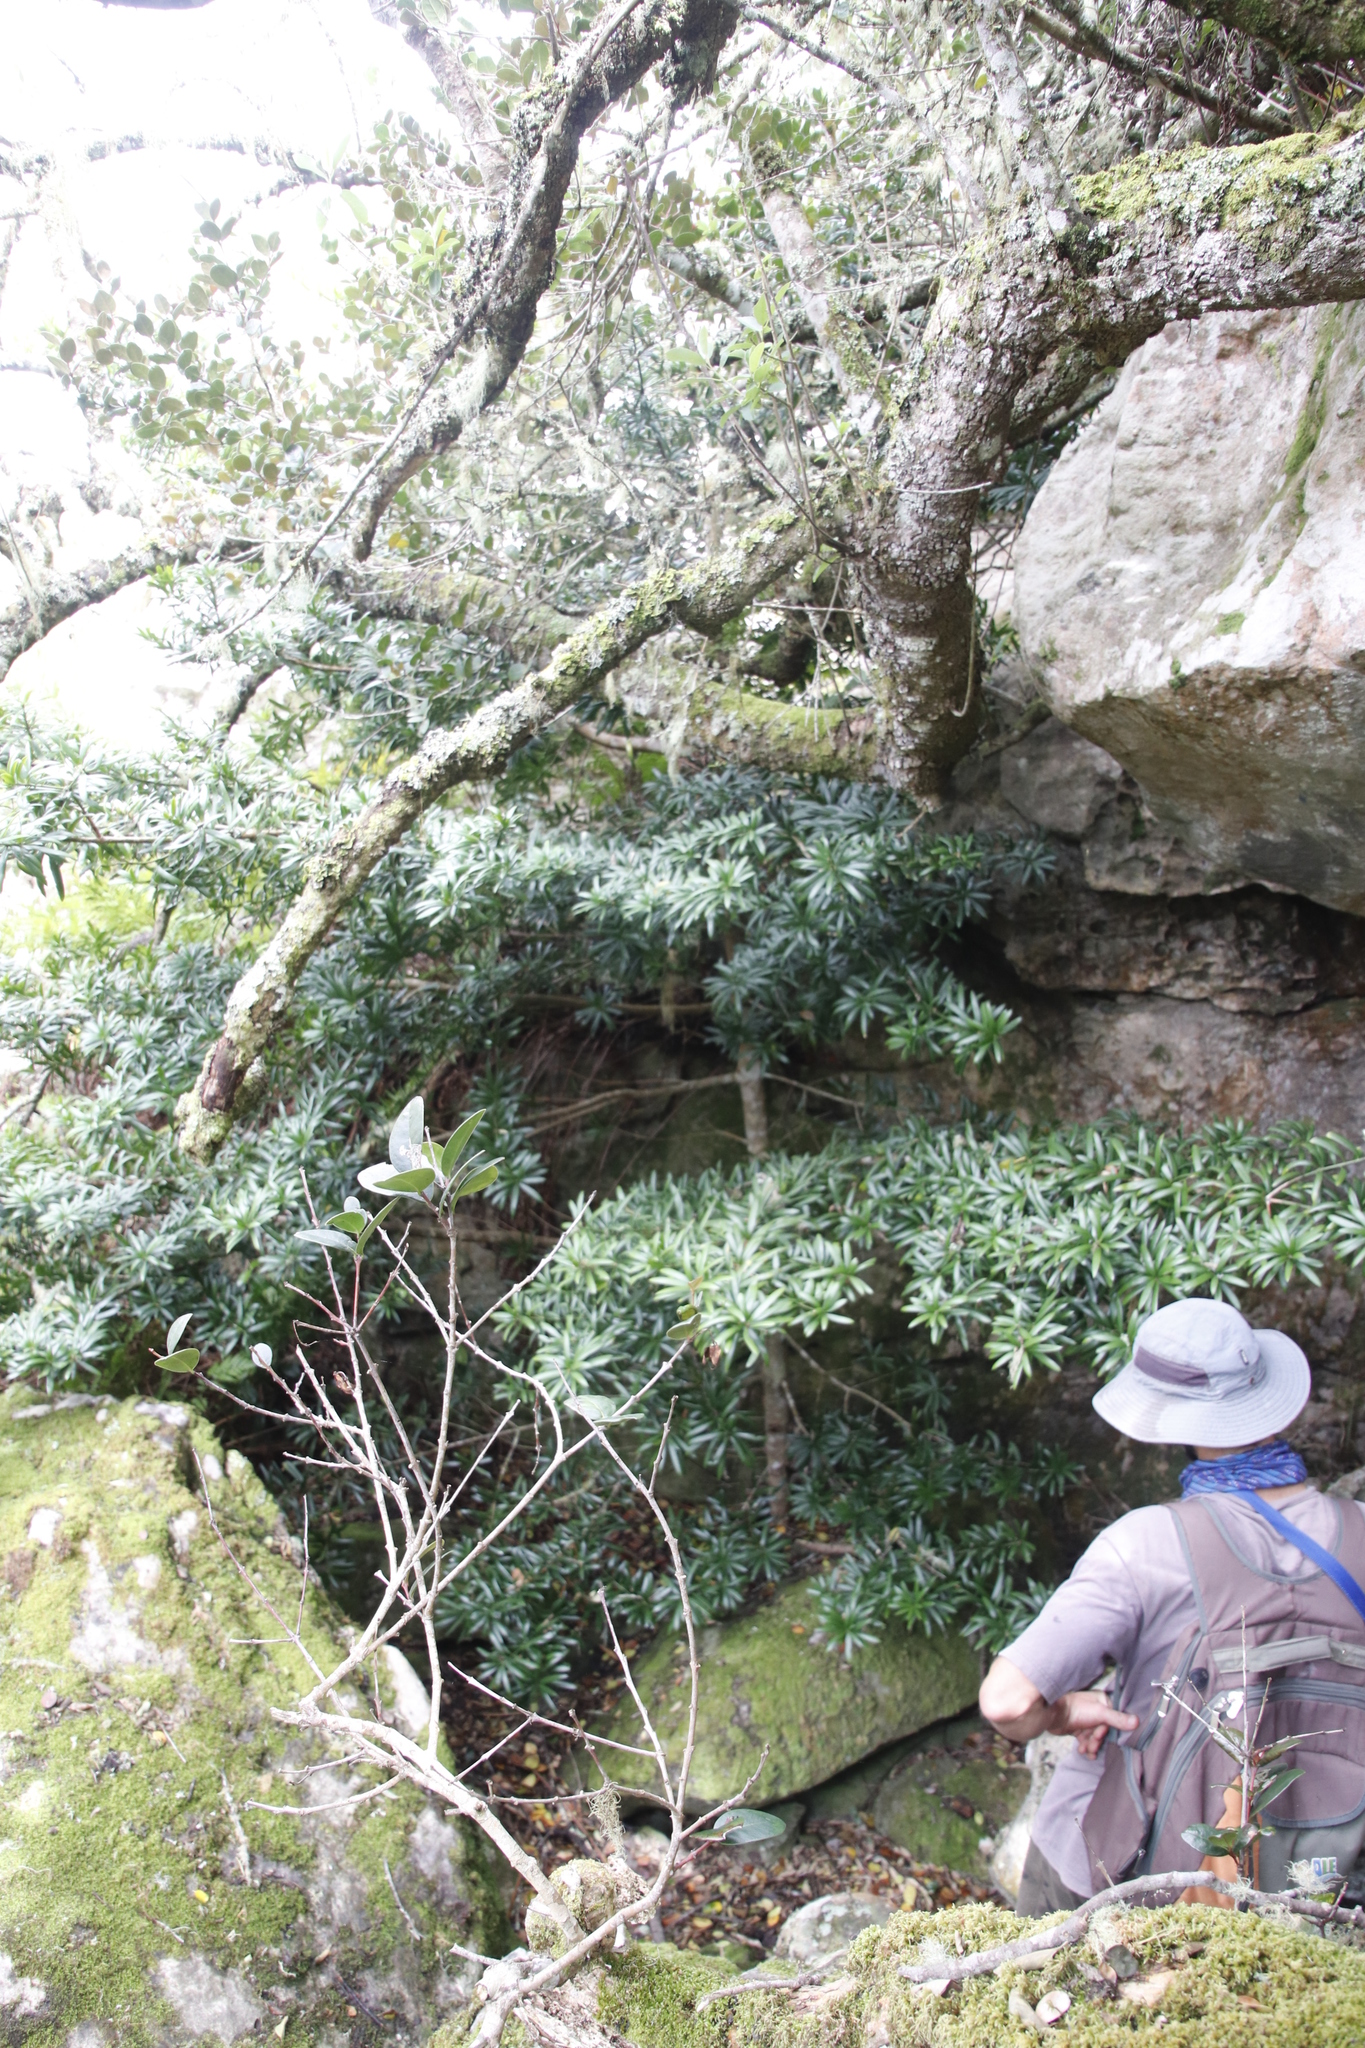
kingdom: Plantae
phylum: Tracheophyta
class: Pinopsida
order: Pinales
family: Podocarpaceae
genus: Podocarpus
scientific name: Podocarpus latifolius
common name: True yellowwood
